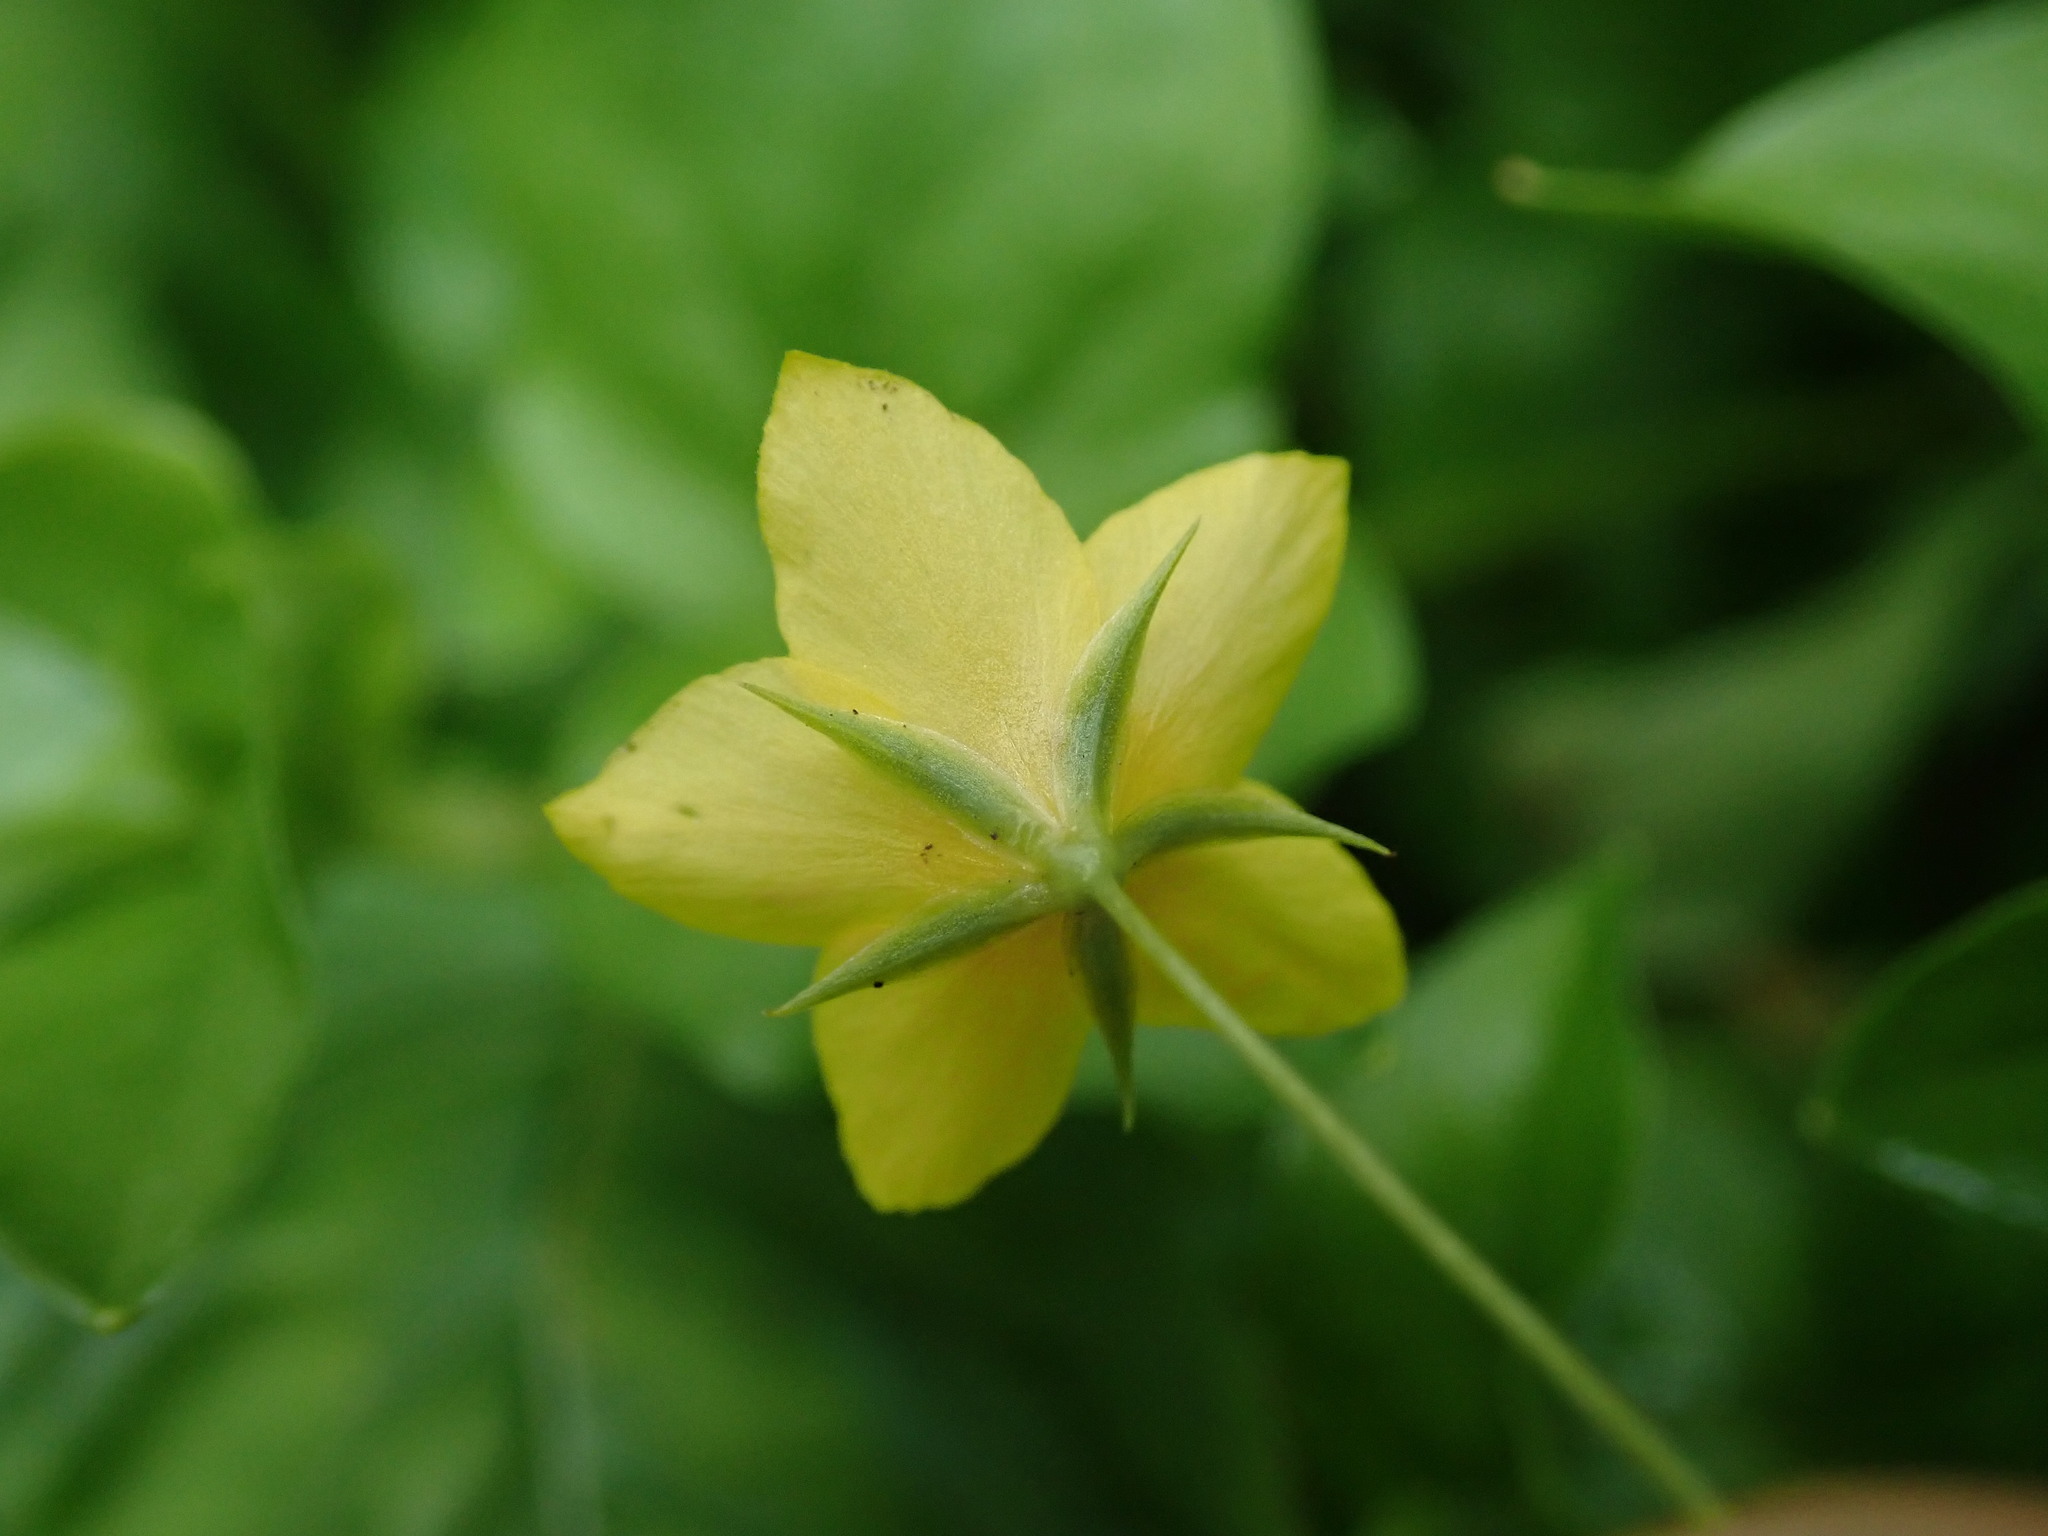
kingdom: Plantae
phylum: Tracheophyta
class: Magnoliopsida
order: Ericales
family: Primulaceae
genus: Lysimachia
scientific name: Lysimachia nemorum
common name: Yellow pimpernel
